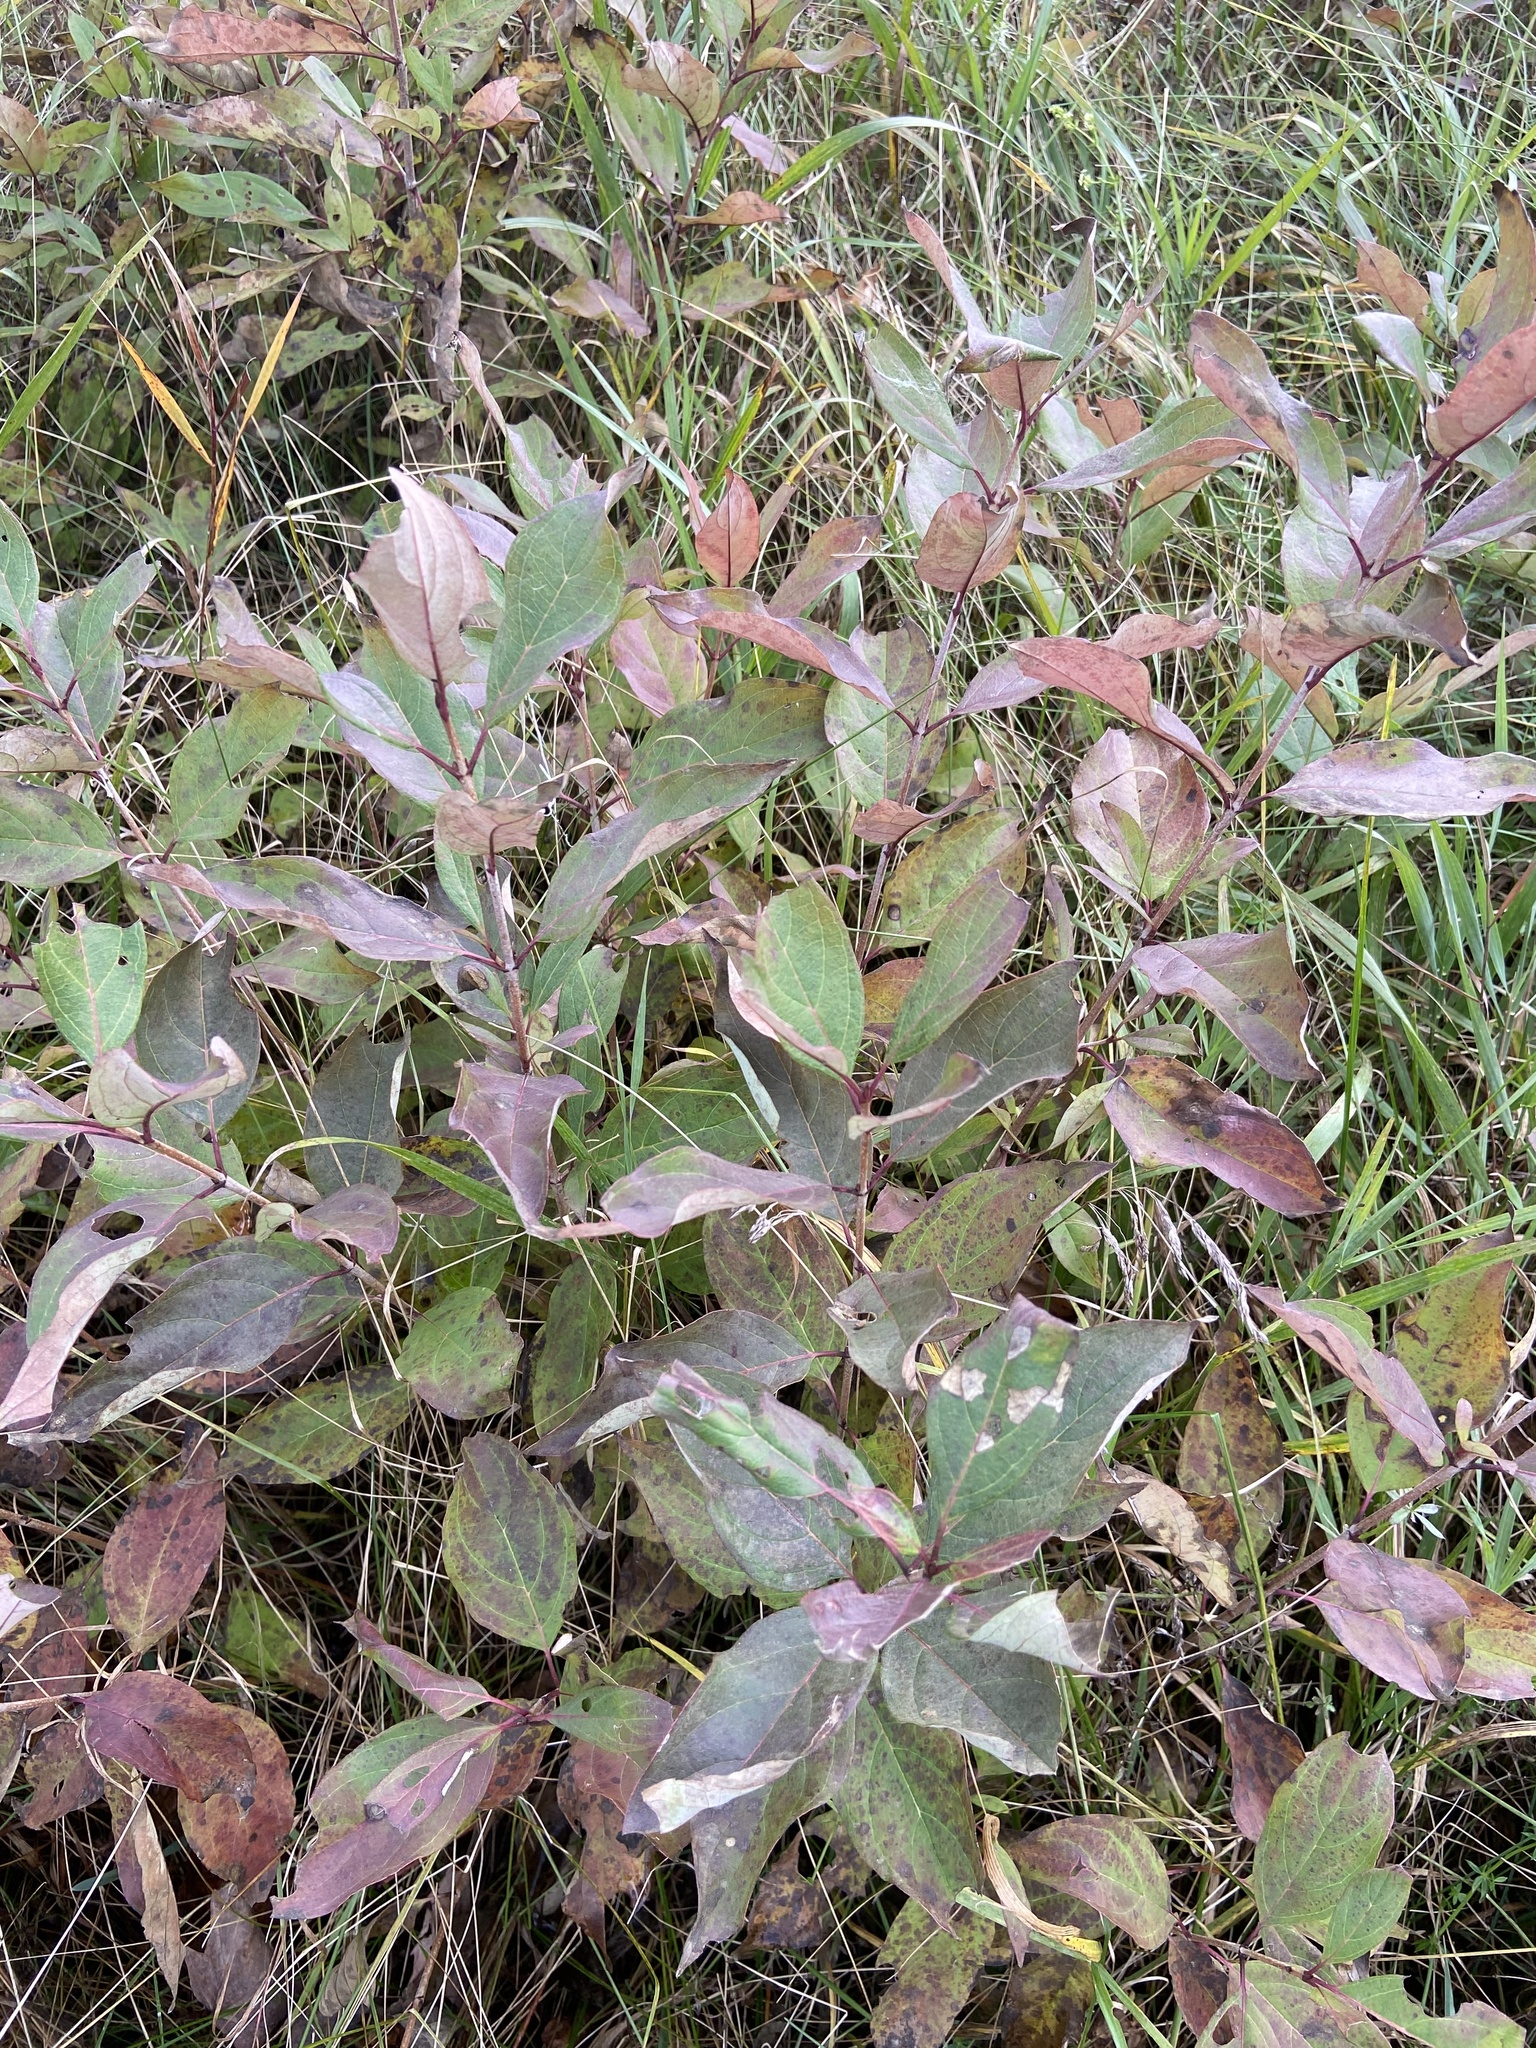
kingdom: Plantae
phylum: Tracheophyta
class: Magnoliopsida
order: Cornales
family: Cornaceae
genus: Cornus
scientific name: Cornus racemosa
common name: Panicled dogwood
